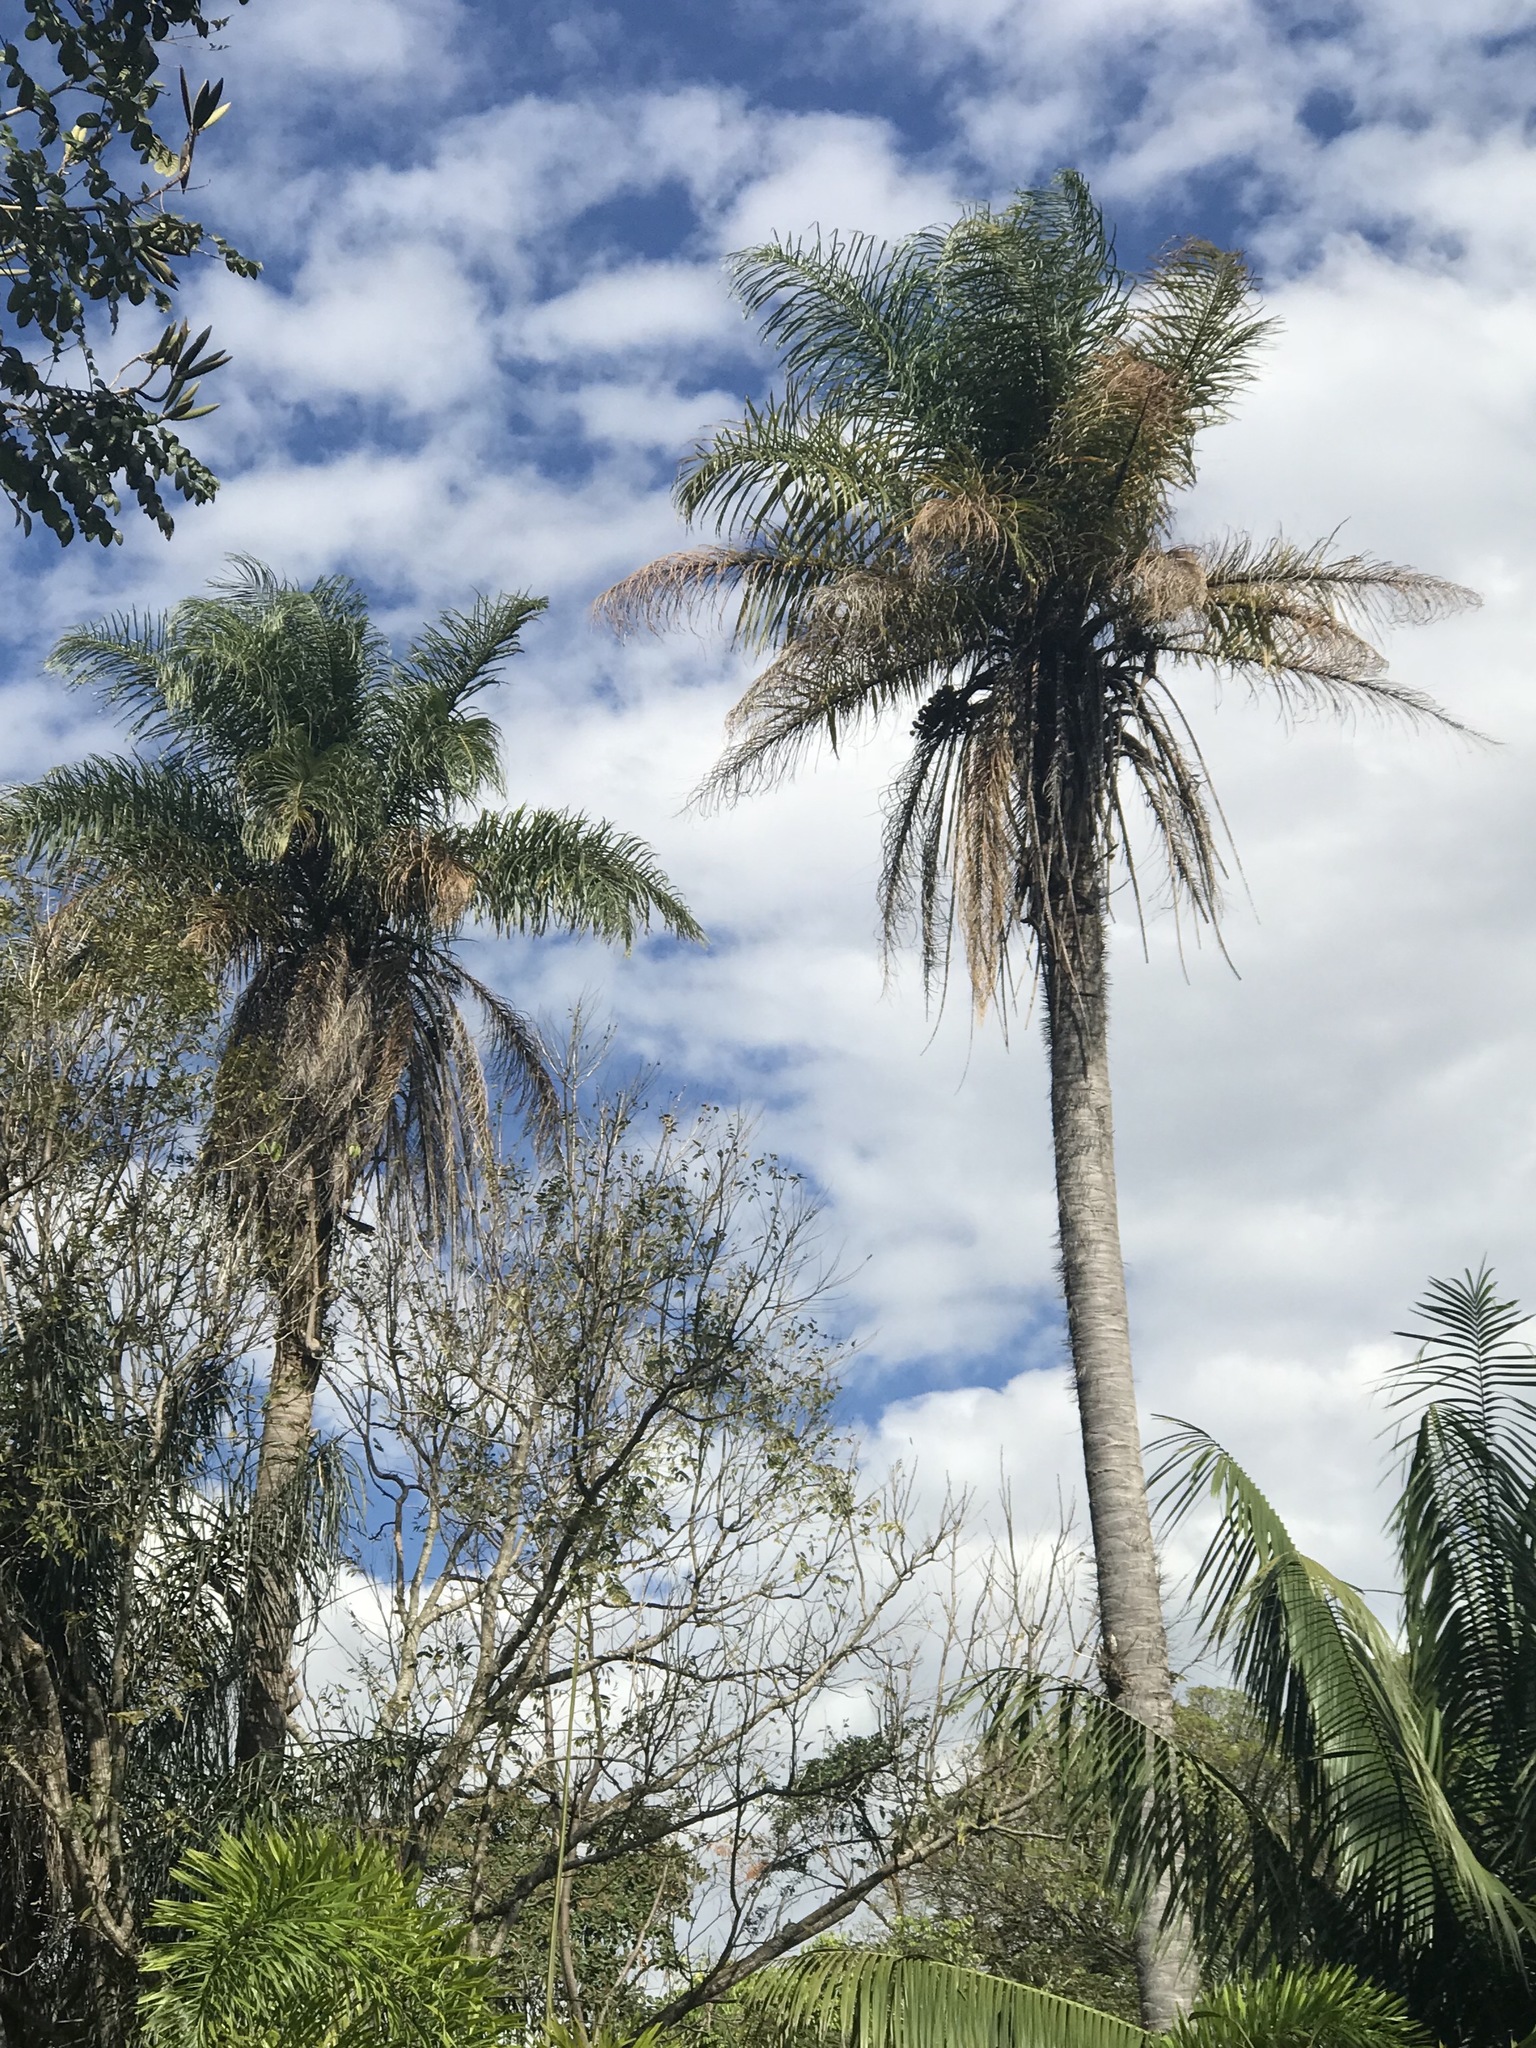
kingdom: Plantae
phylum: Tracheophyta
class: Liliopsida
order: Arecales
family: Arecaceae
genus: Acrocomia
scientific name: Acrocomia aculeata
